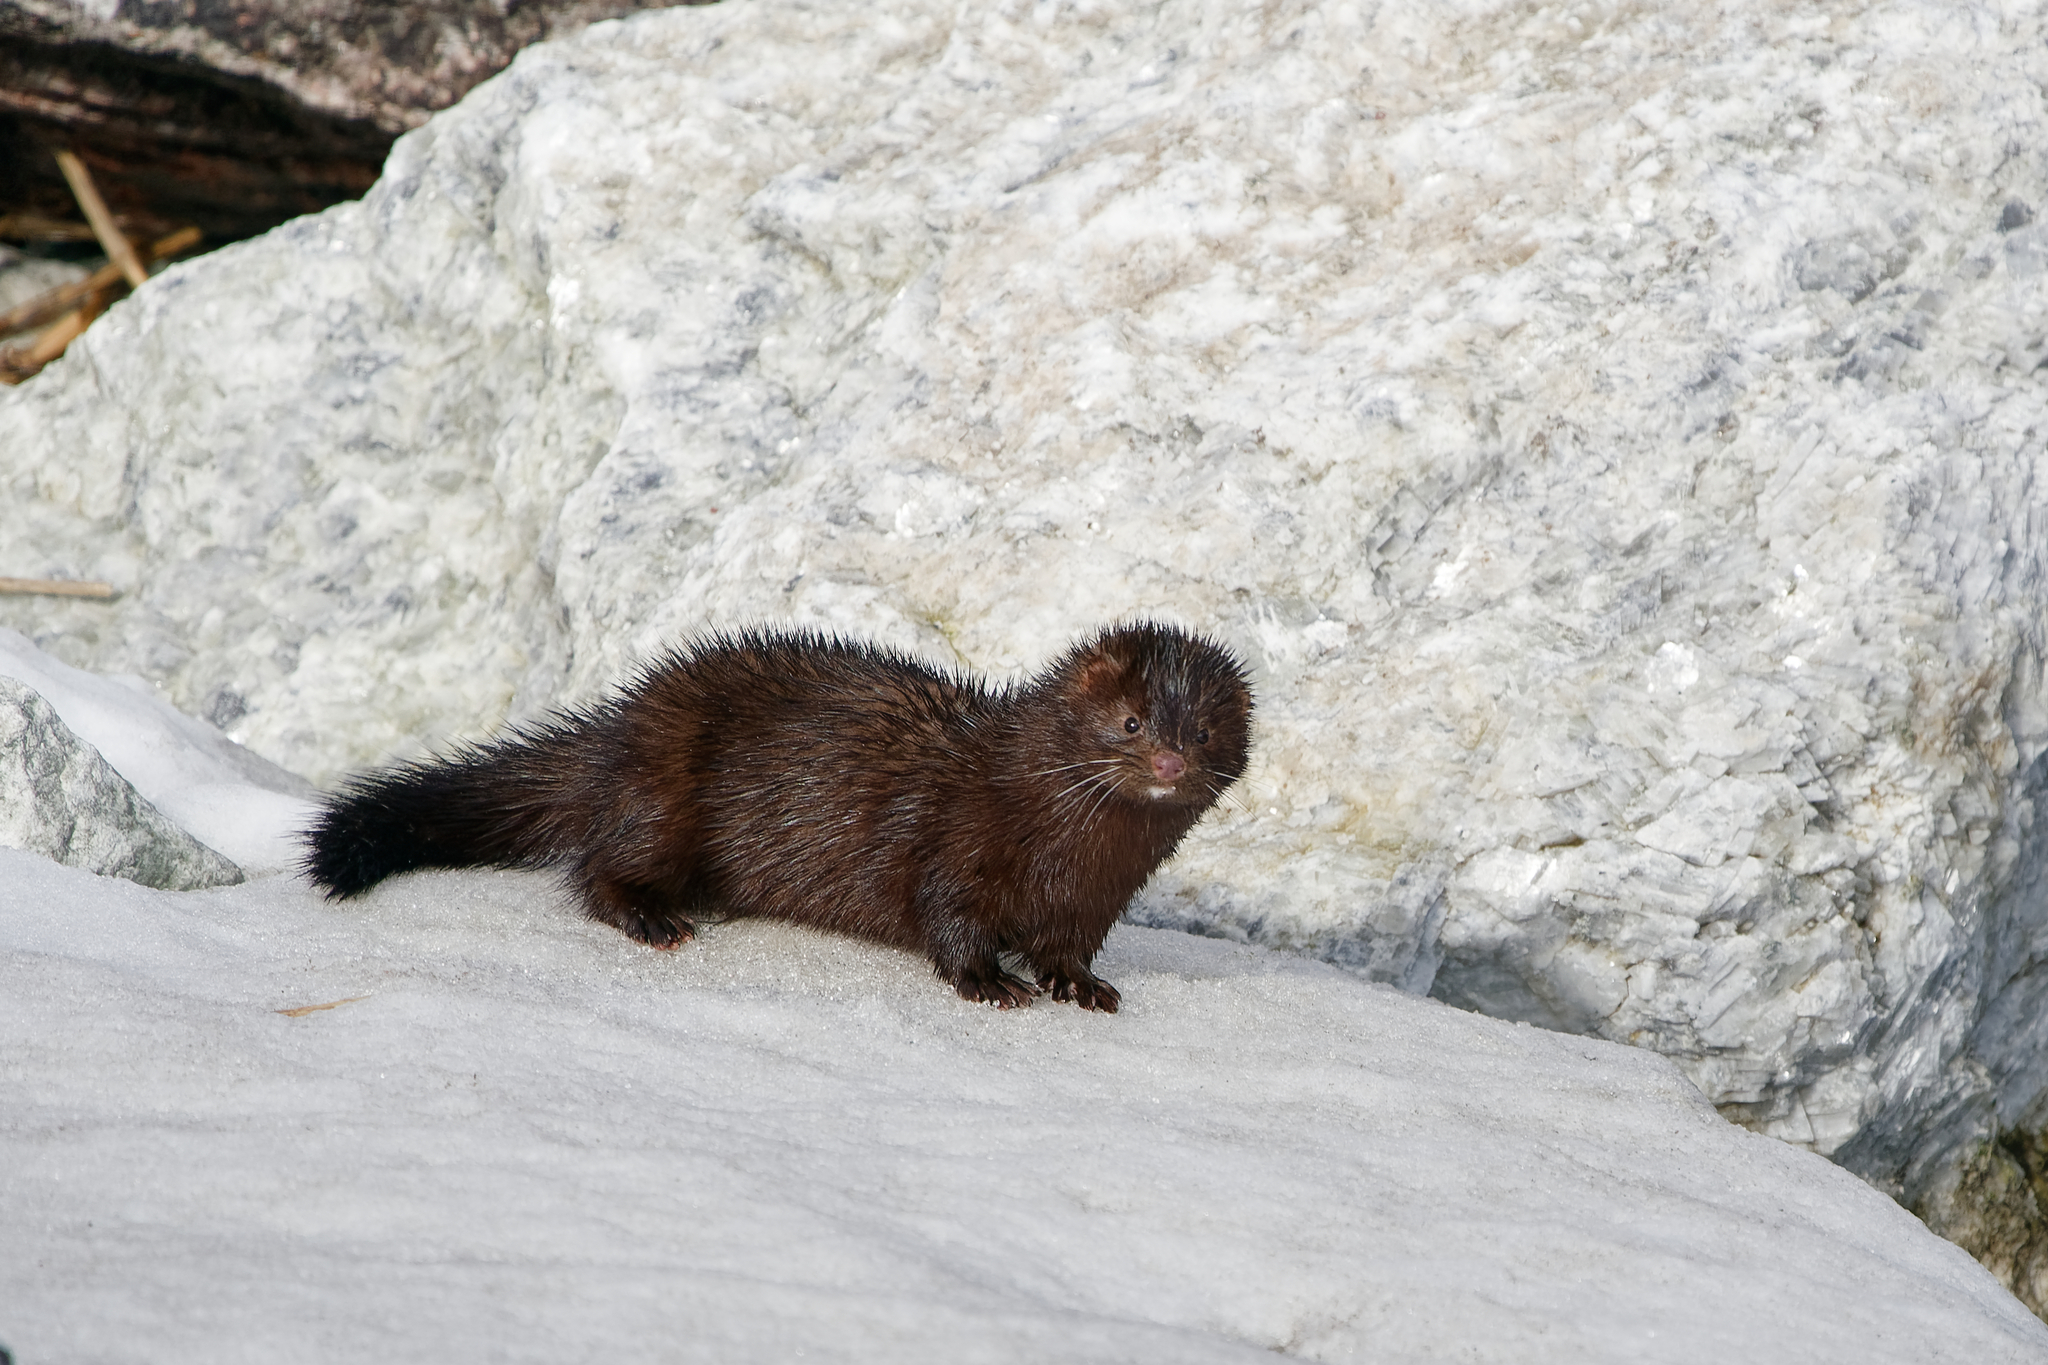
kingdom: Animalia
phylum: Chordata
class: Mammalia
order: Carnivora
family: Mustelidae
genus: Mustela
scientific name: Mustela
